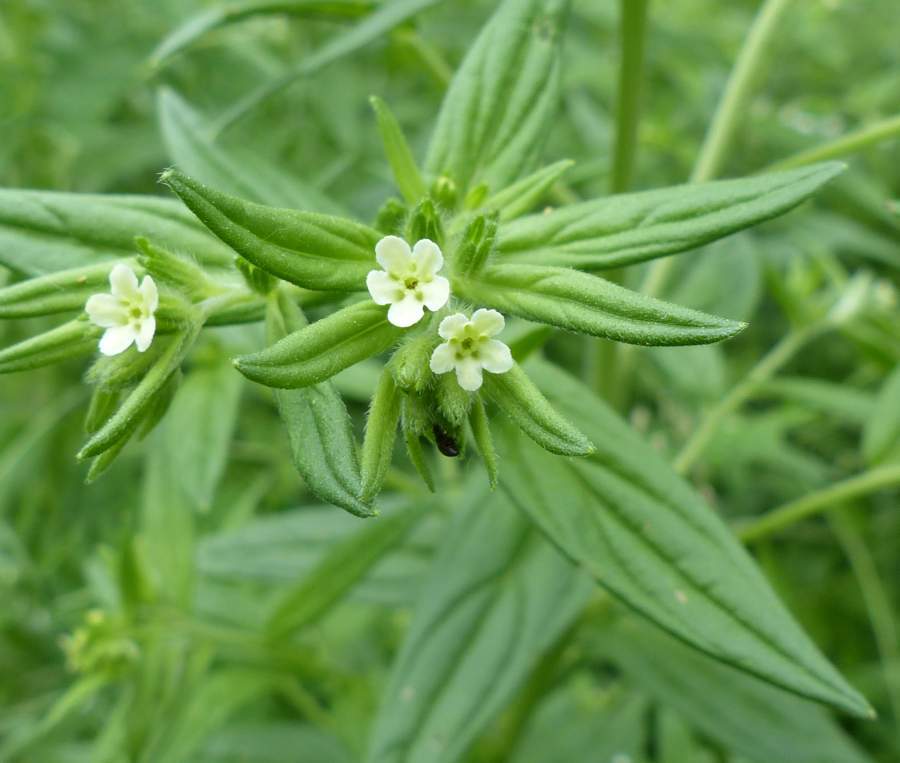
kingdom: Plantae
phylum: Tracheophyta
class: Magnoliopsida
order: Boraginales
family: Boraginaceae
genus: Lithospermum
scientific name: Lithospermum officinale
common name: Common gromwell
